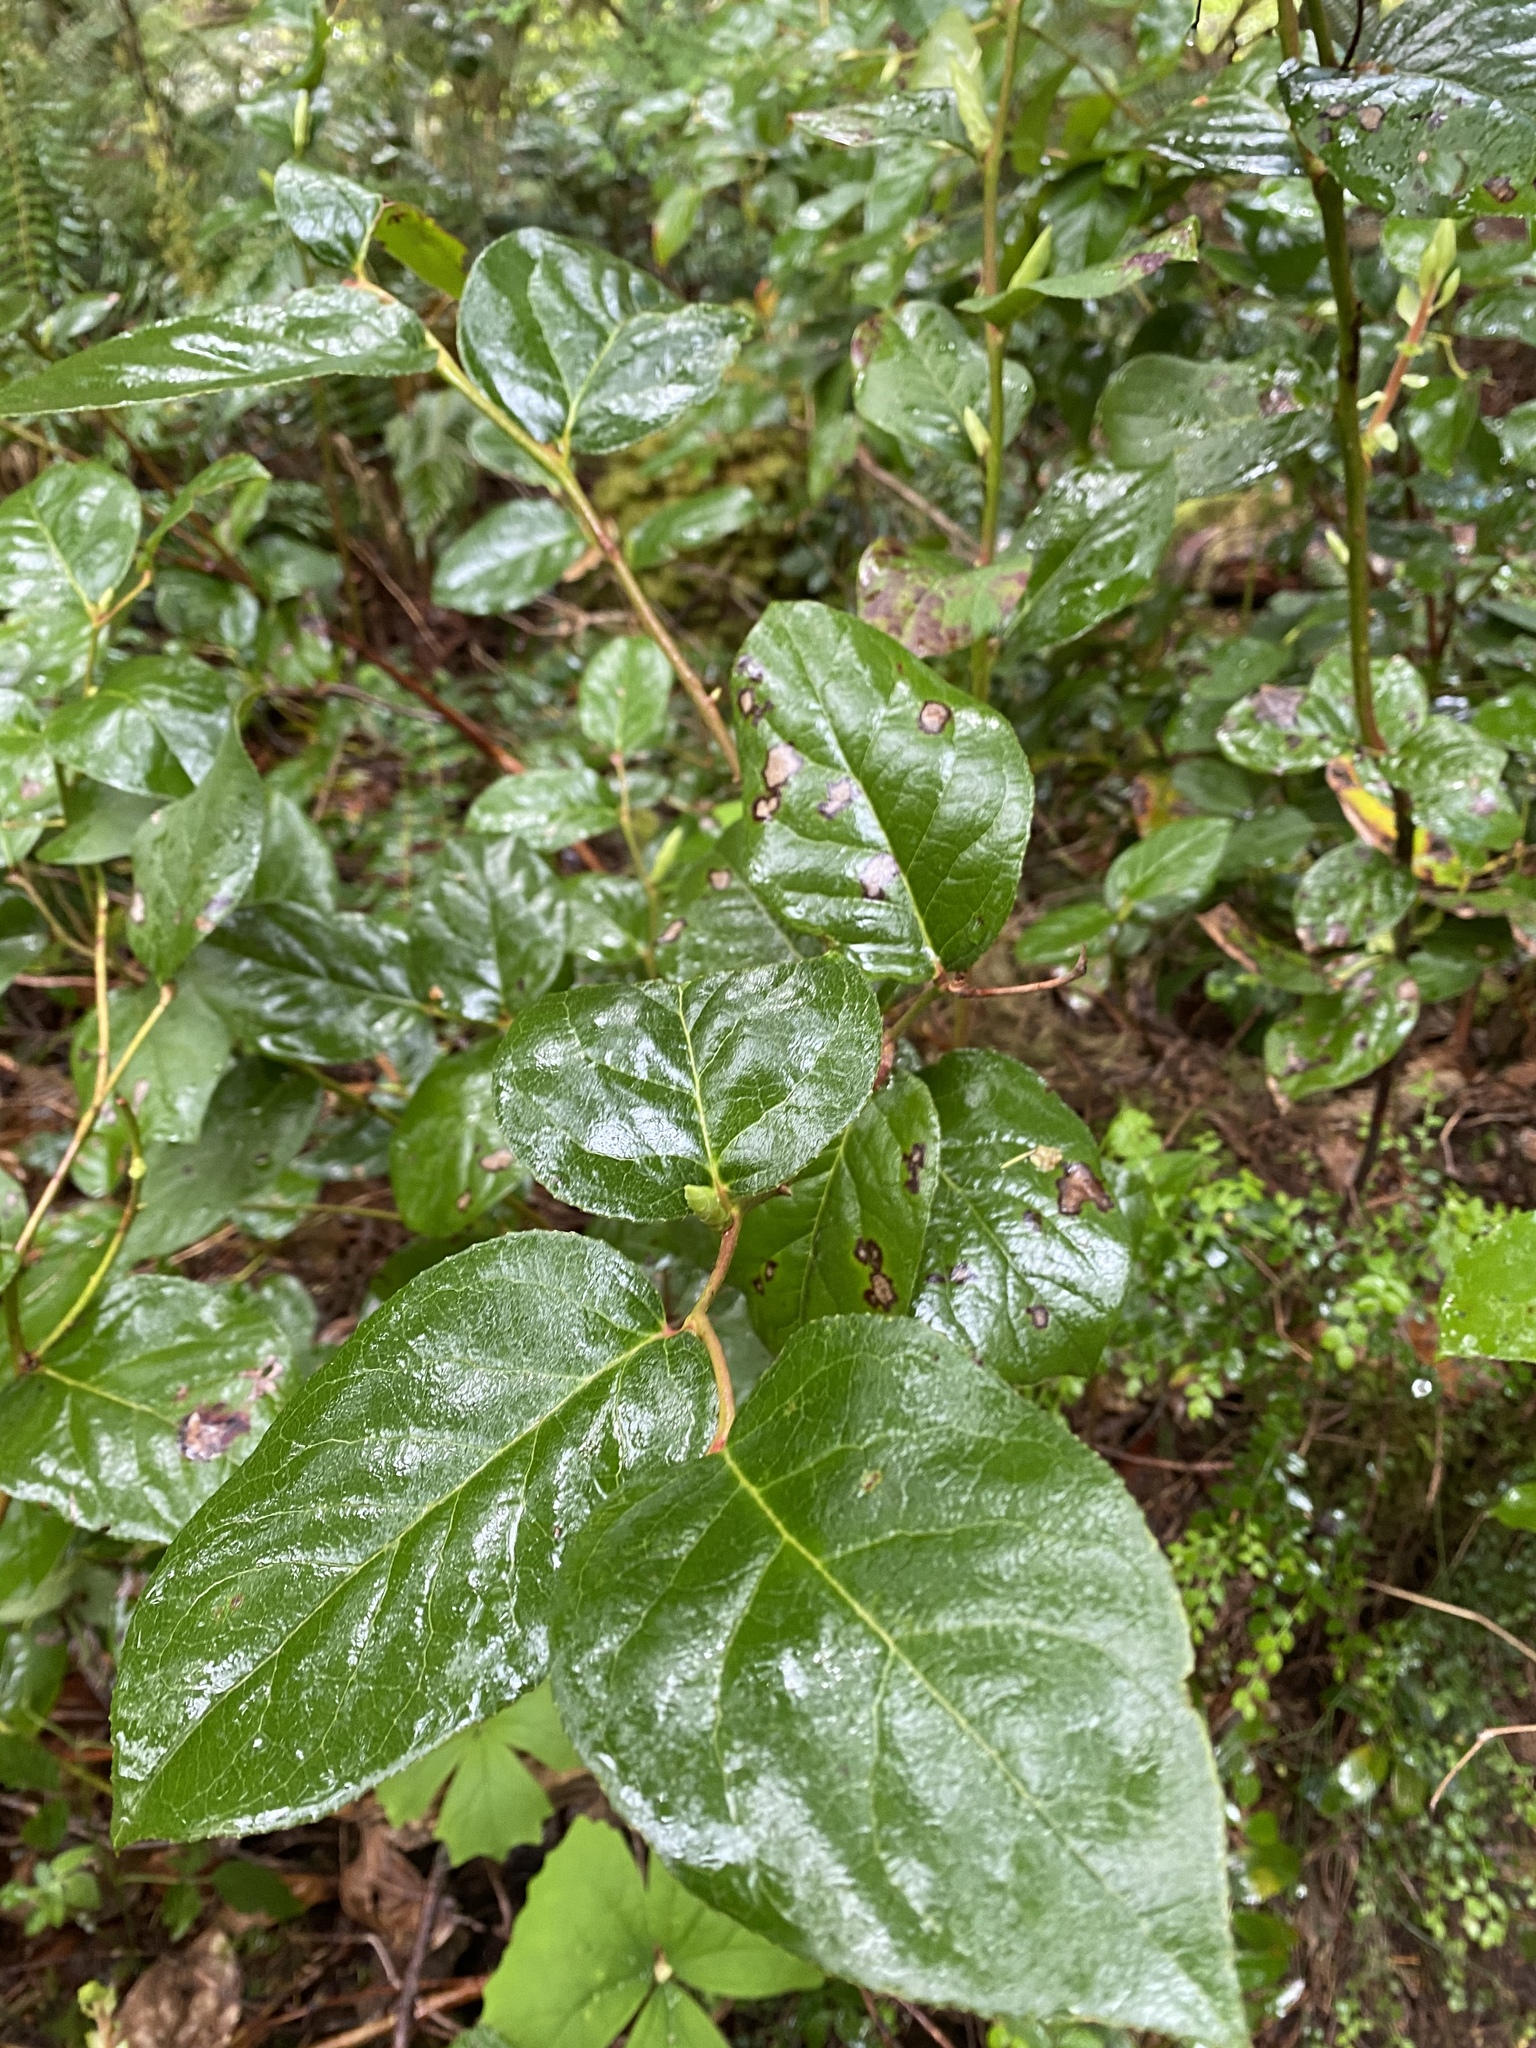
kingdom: Plantae
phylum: Tracheophyta
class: Magnoliopsida
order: Ericales
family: Ericaceae
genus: Gaultheria
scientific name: Gaultheria shallon
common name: Shallon
